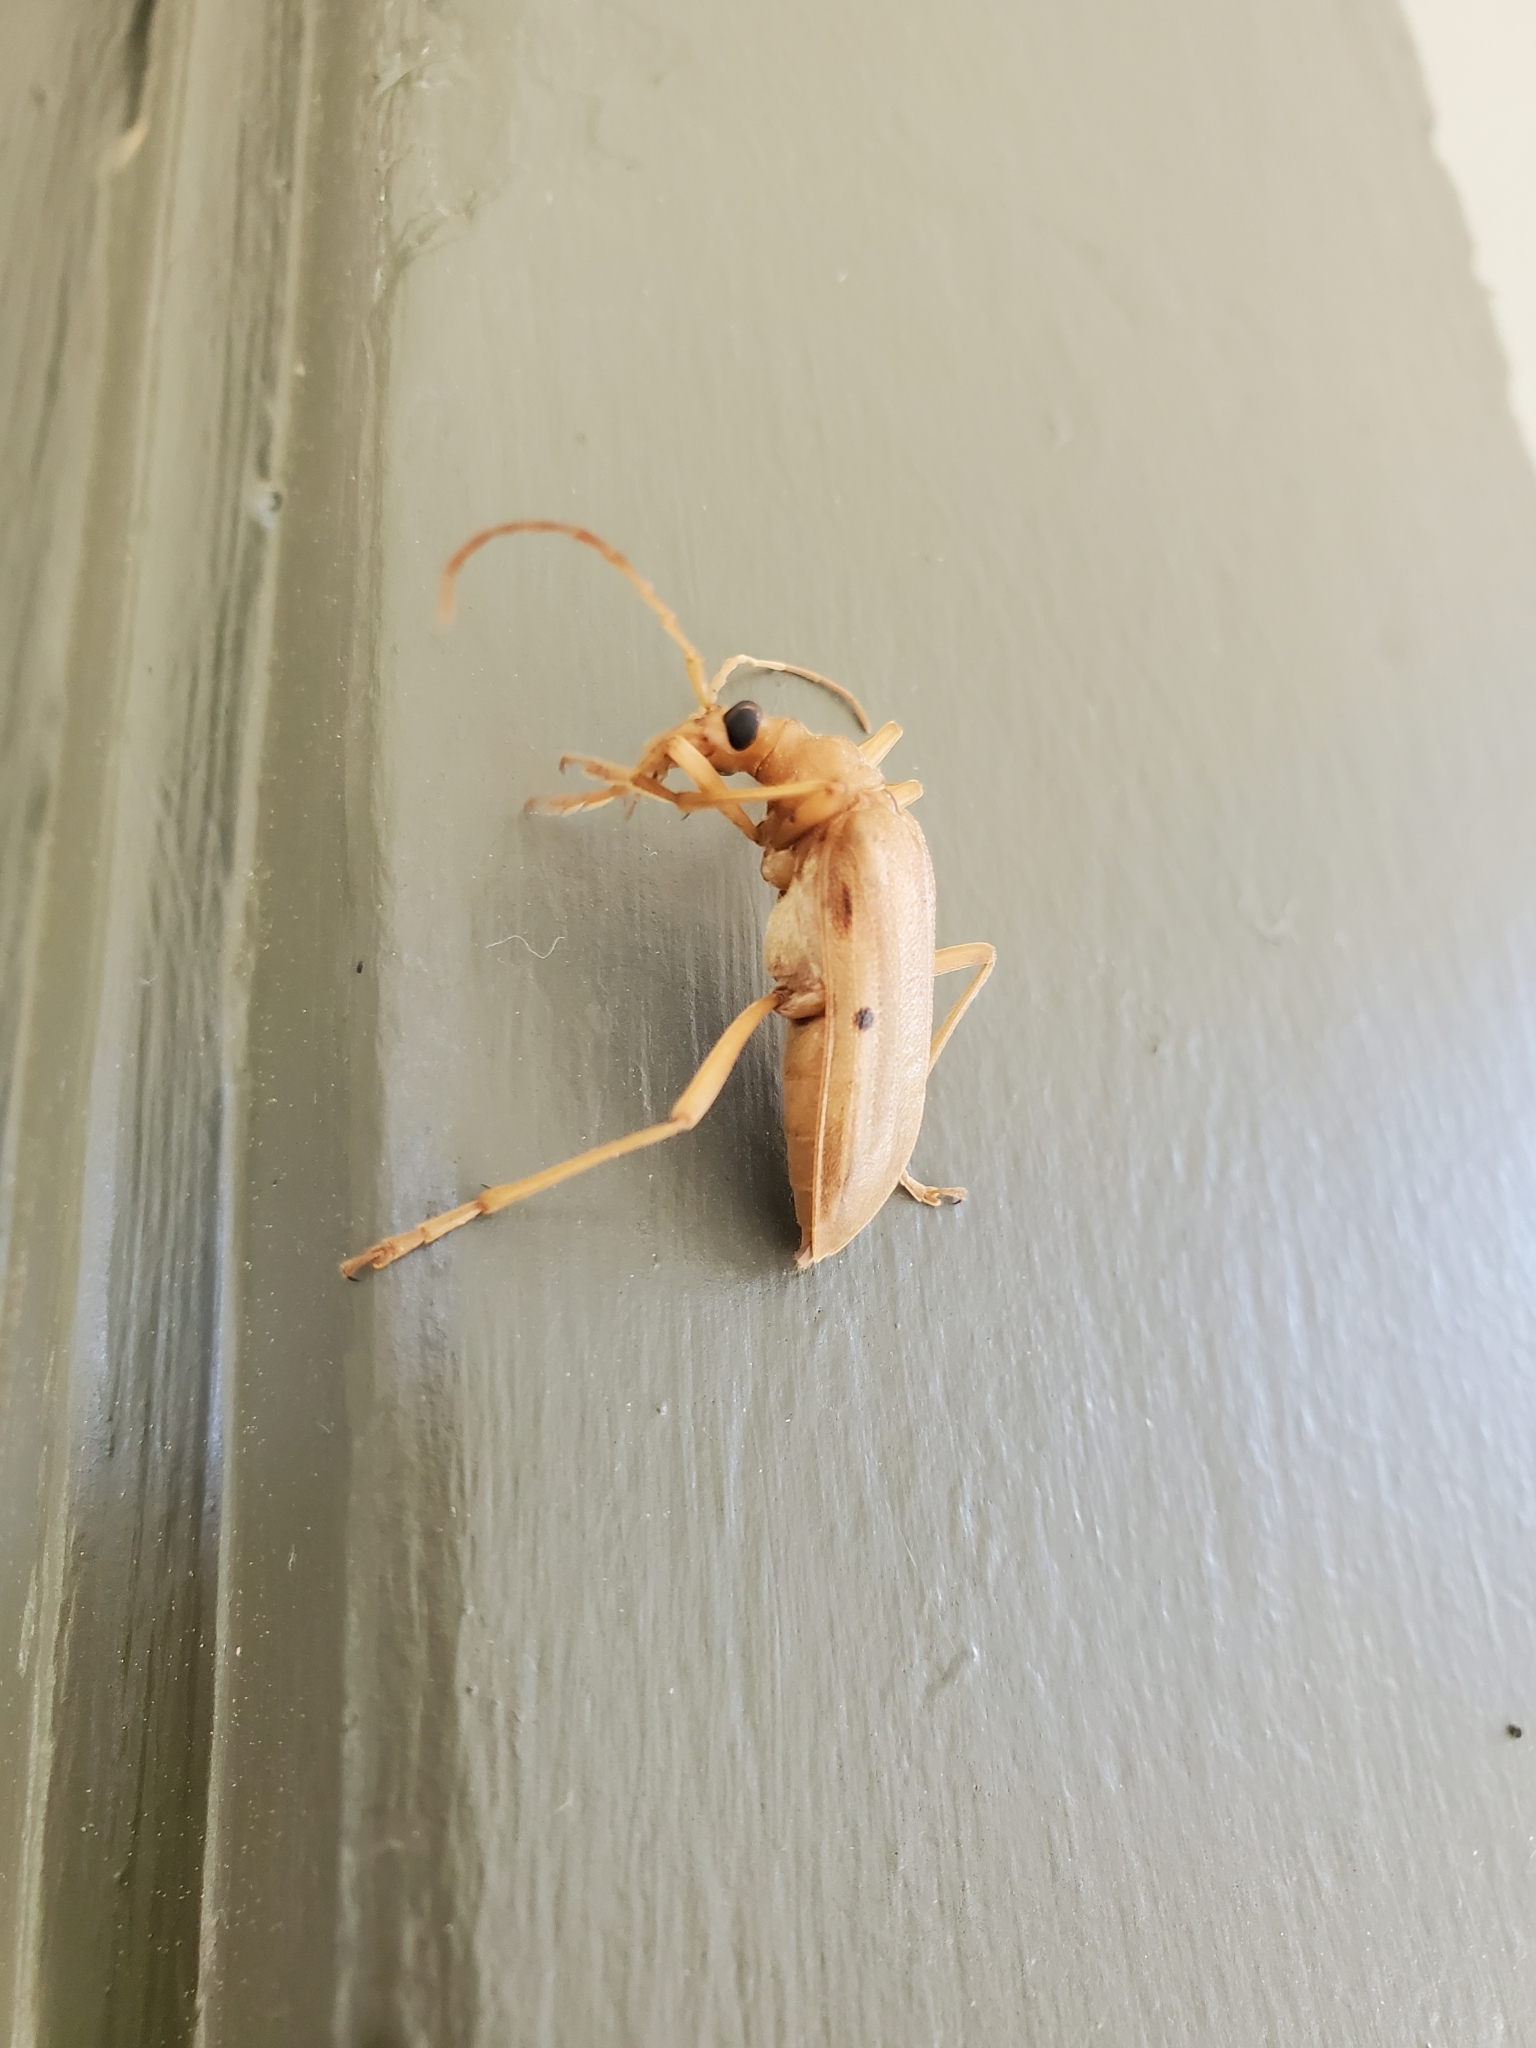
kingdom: Animalia
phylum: Arthropoda
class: Insecta
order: Coleoptera
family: Cerambycidae
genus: Centrodera
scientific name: Centrodera spurca
